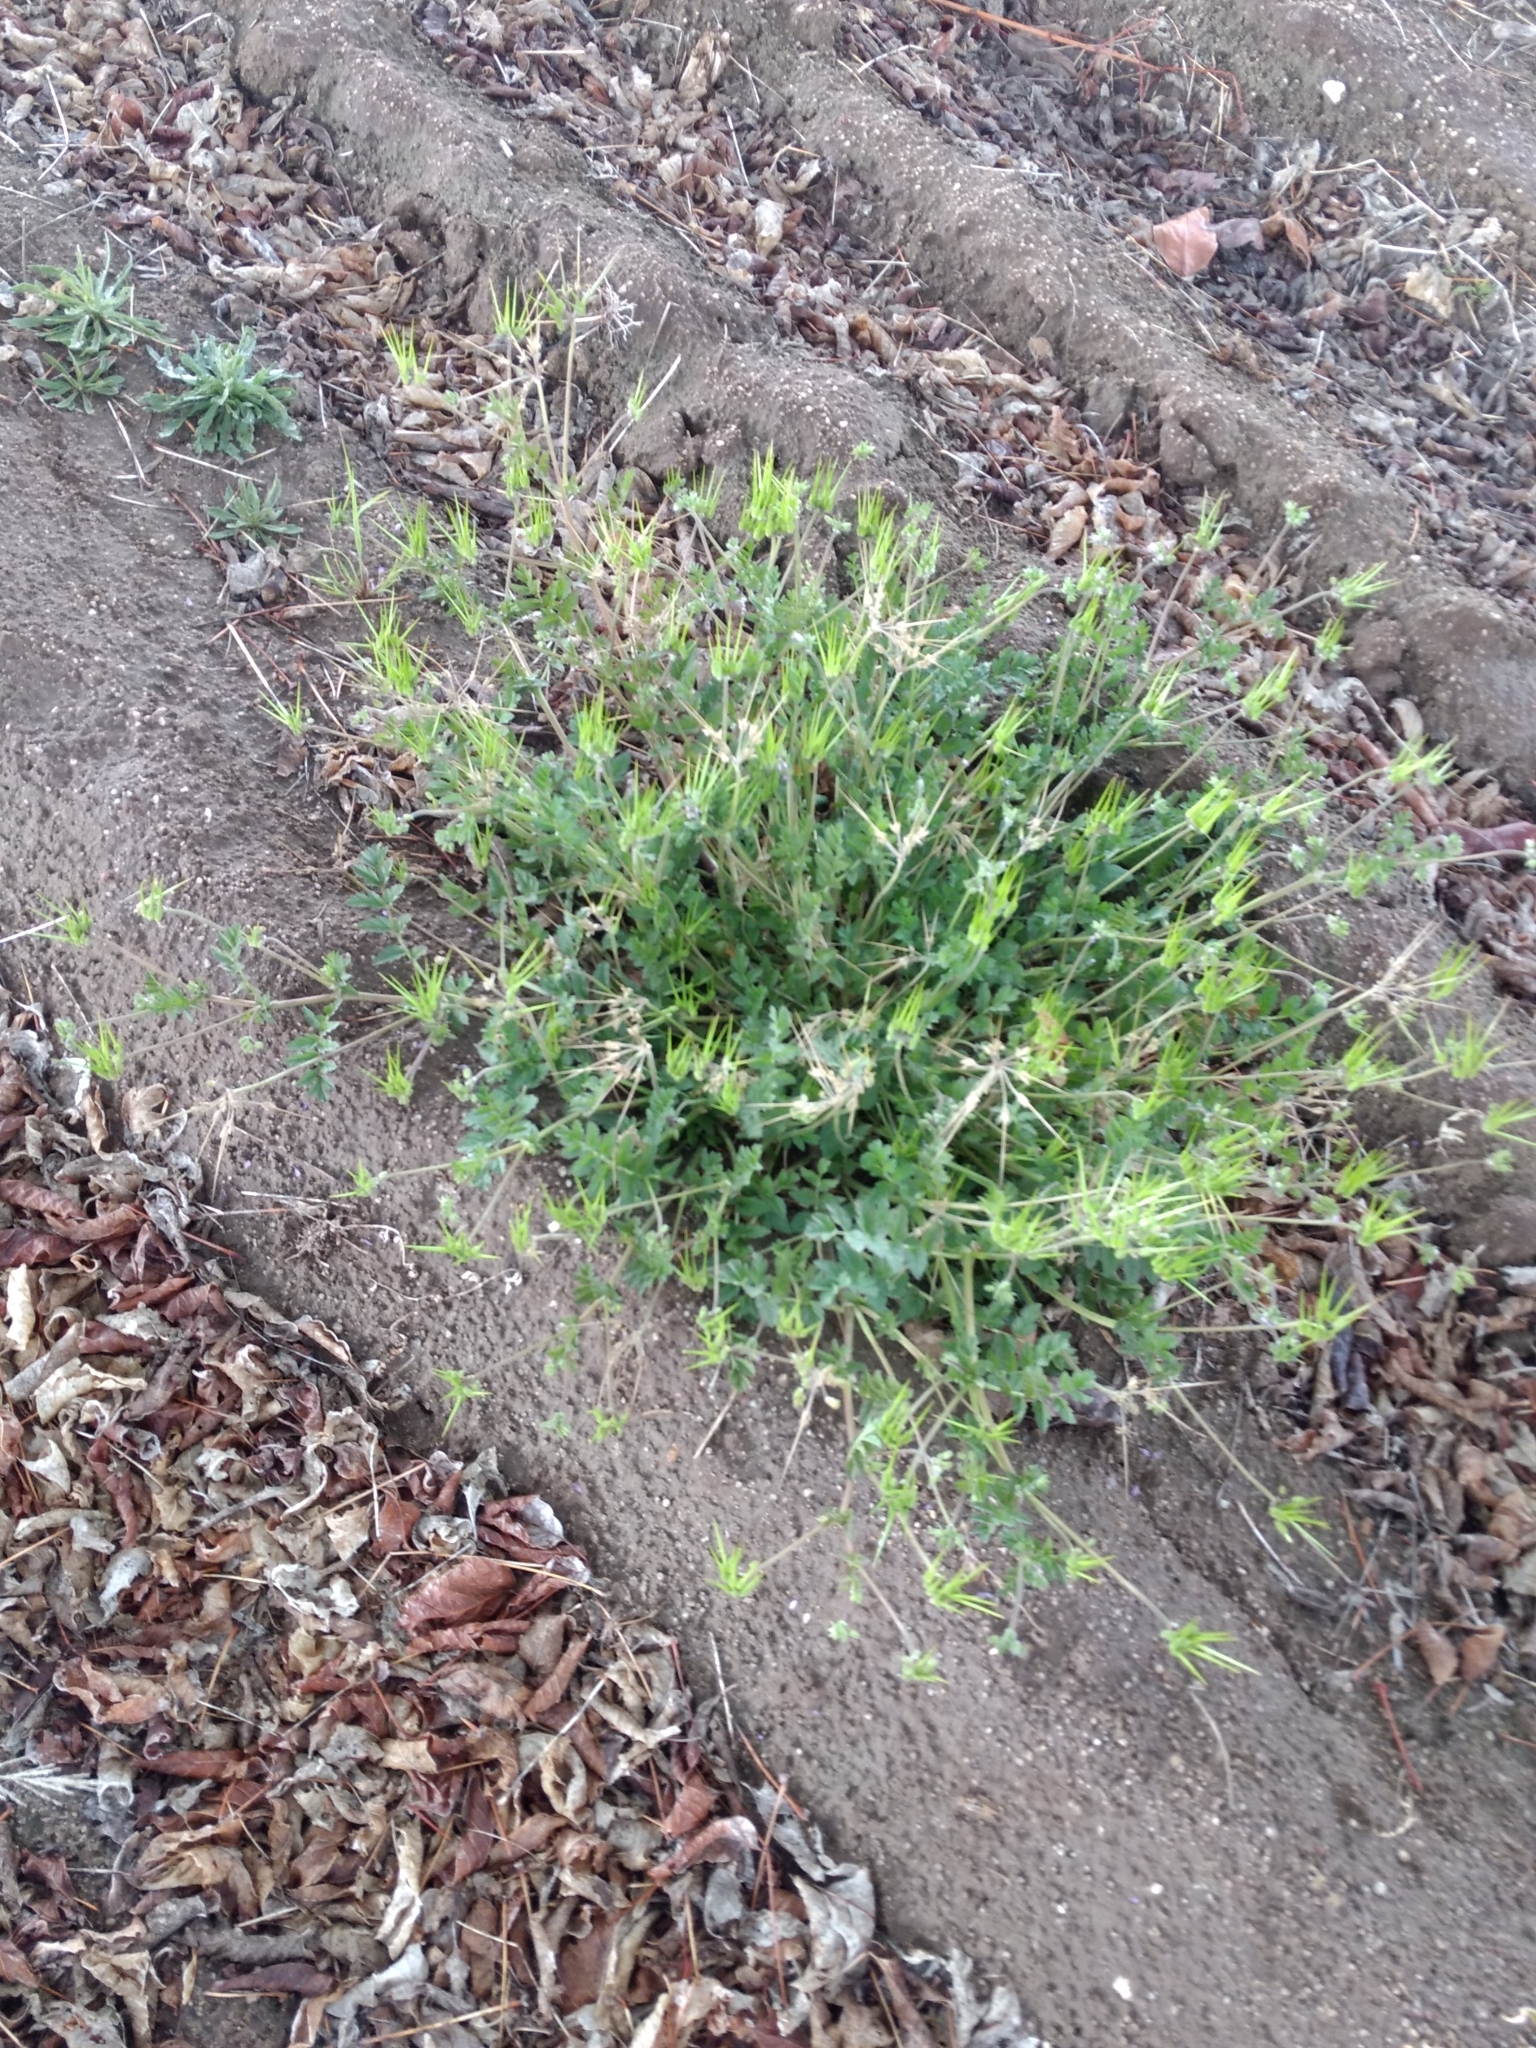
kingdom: Plantae
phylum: Tracheophyta
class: Magnoliopsida
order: Geraniales
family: Geraniaceae
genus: Erodium
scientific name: Erodium moschatum
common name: Musk stork's-bill
